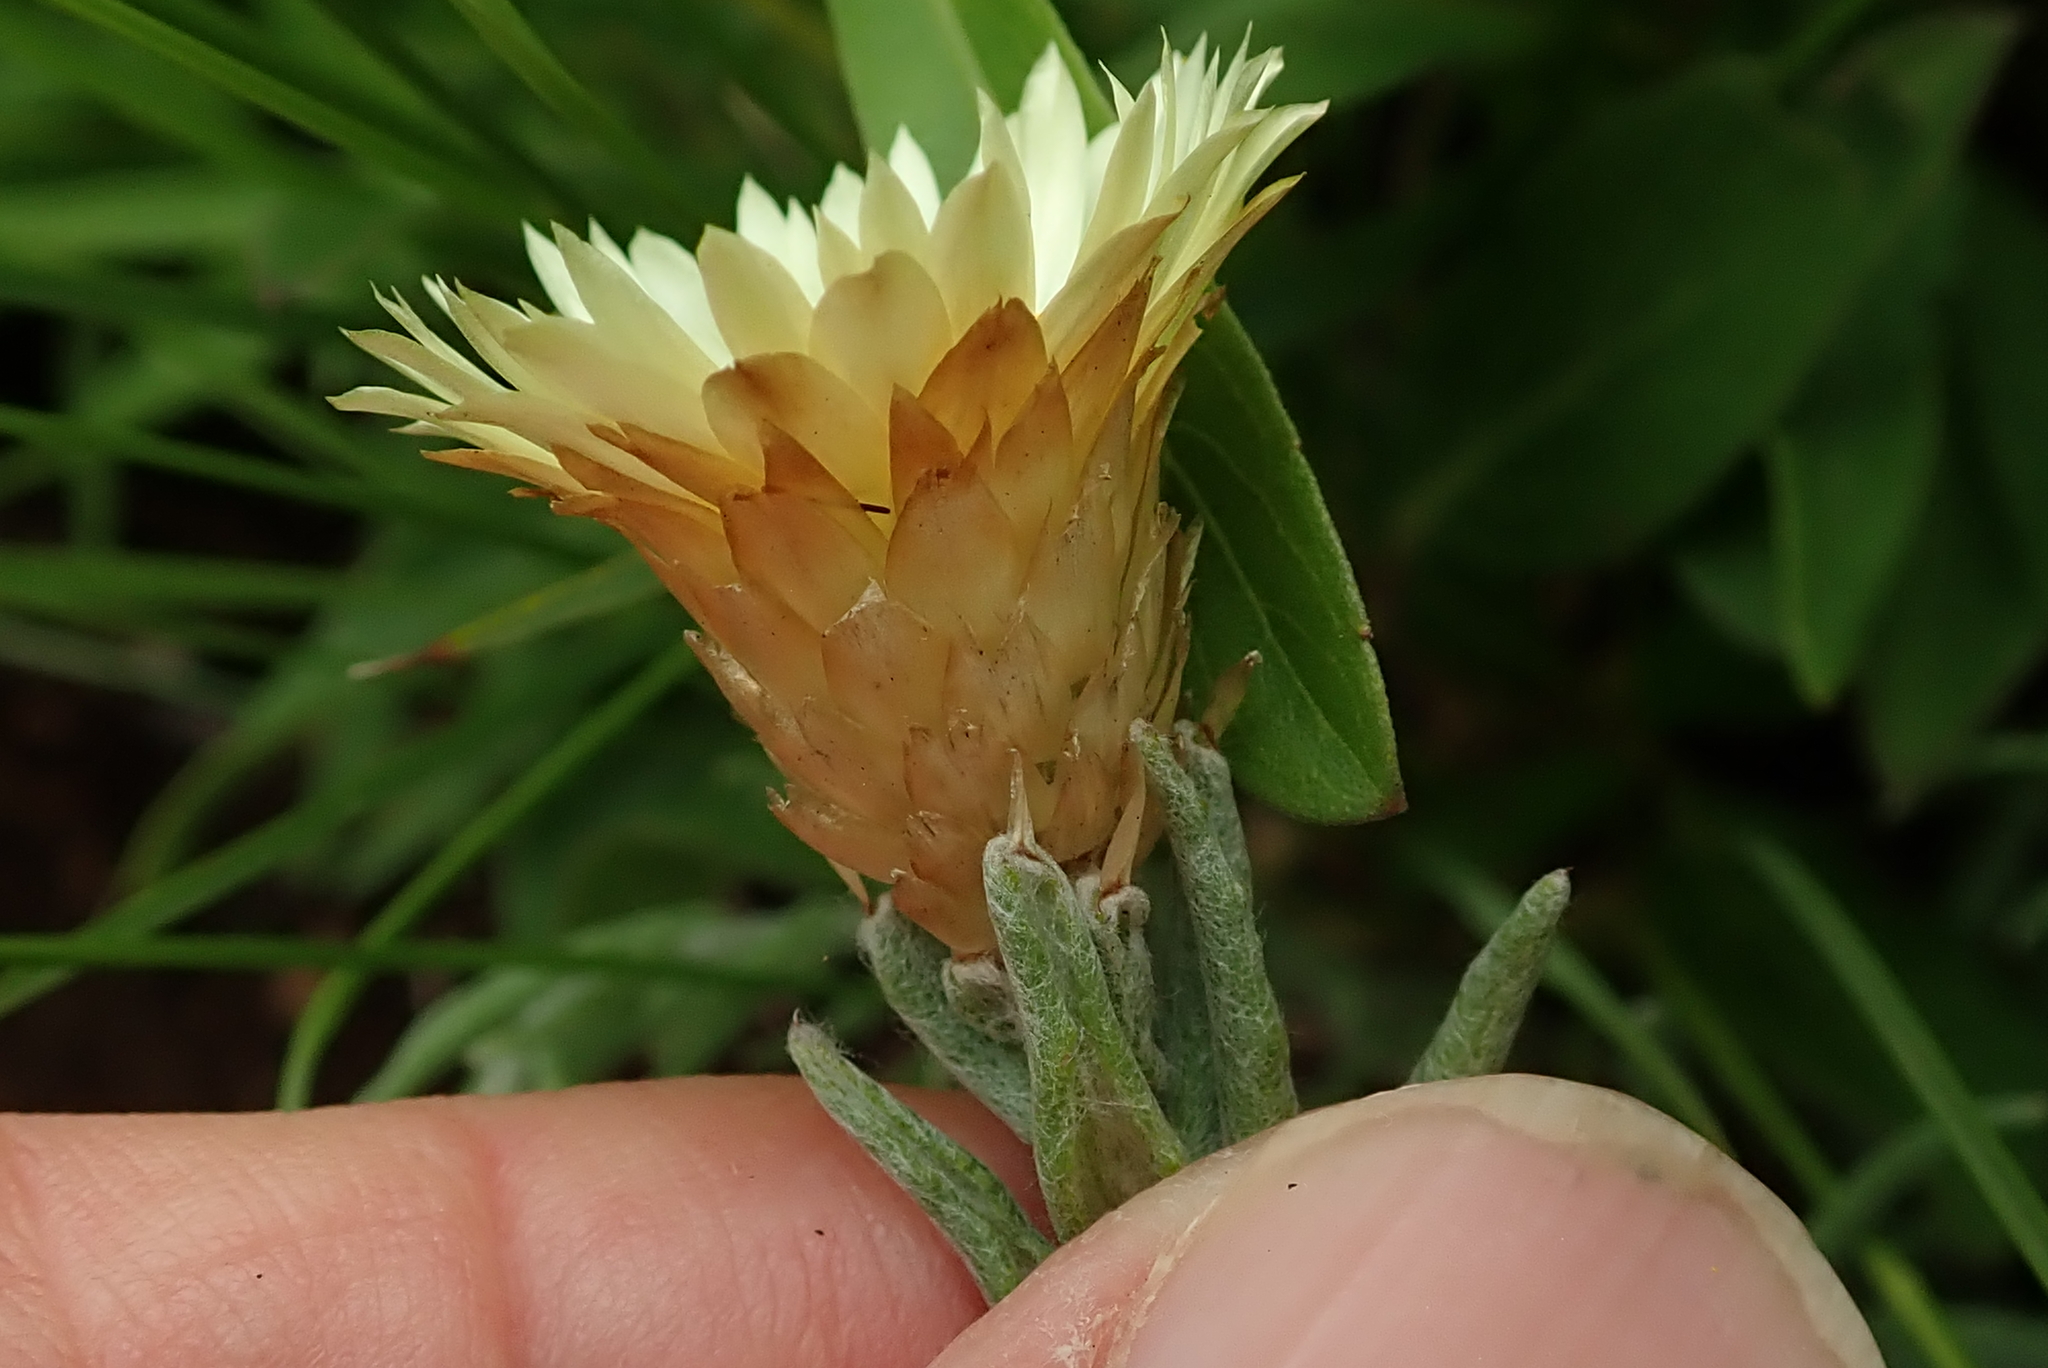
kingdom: Plantae
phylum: Tracheophyta
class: Magnoliopsida
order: Asterales
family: Asteraceae
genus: Helichrysum
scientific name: Helichrysum herbaceum
